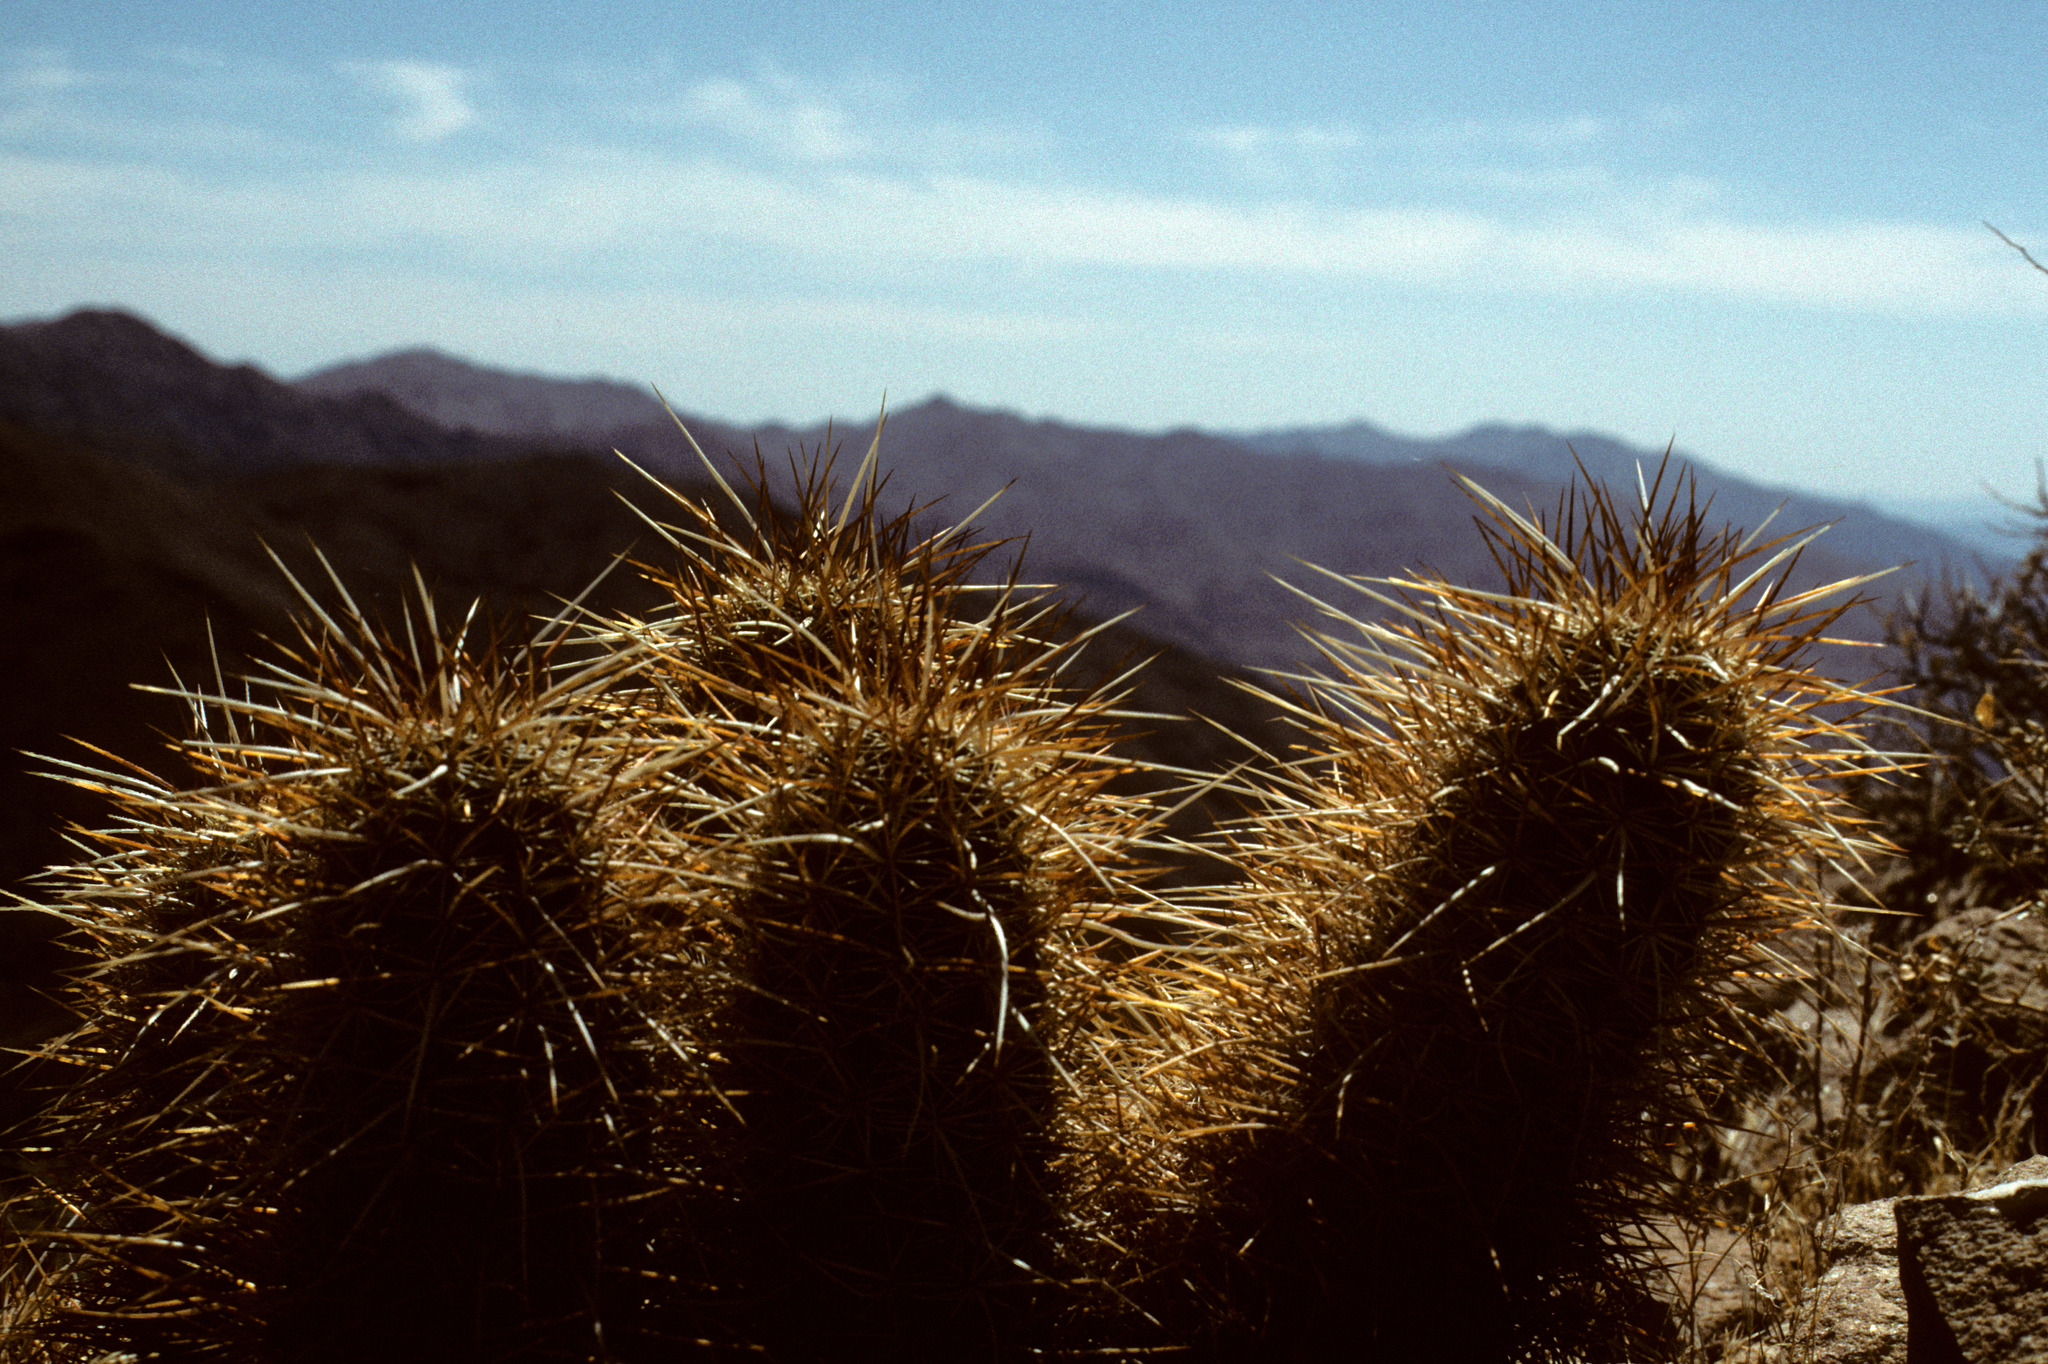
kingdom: Plantae
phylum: Tracheophyta
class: Magnoliopsida
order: Caryophyllales
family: Cactaceae
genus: Echinocereus
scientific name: Echinocereus engelmannii
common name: Engelmann's hedgehog cactus
